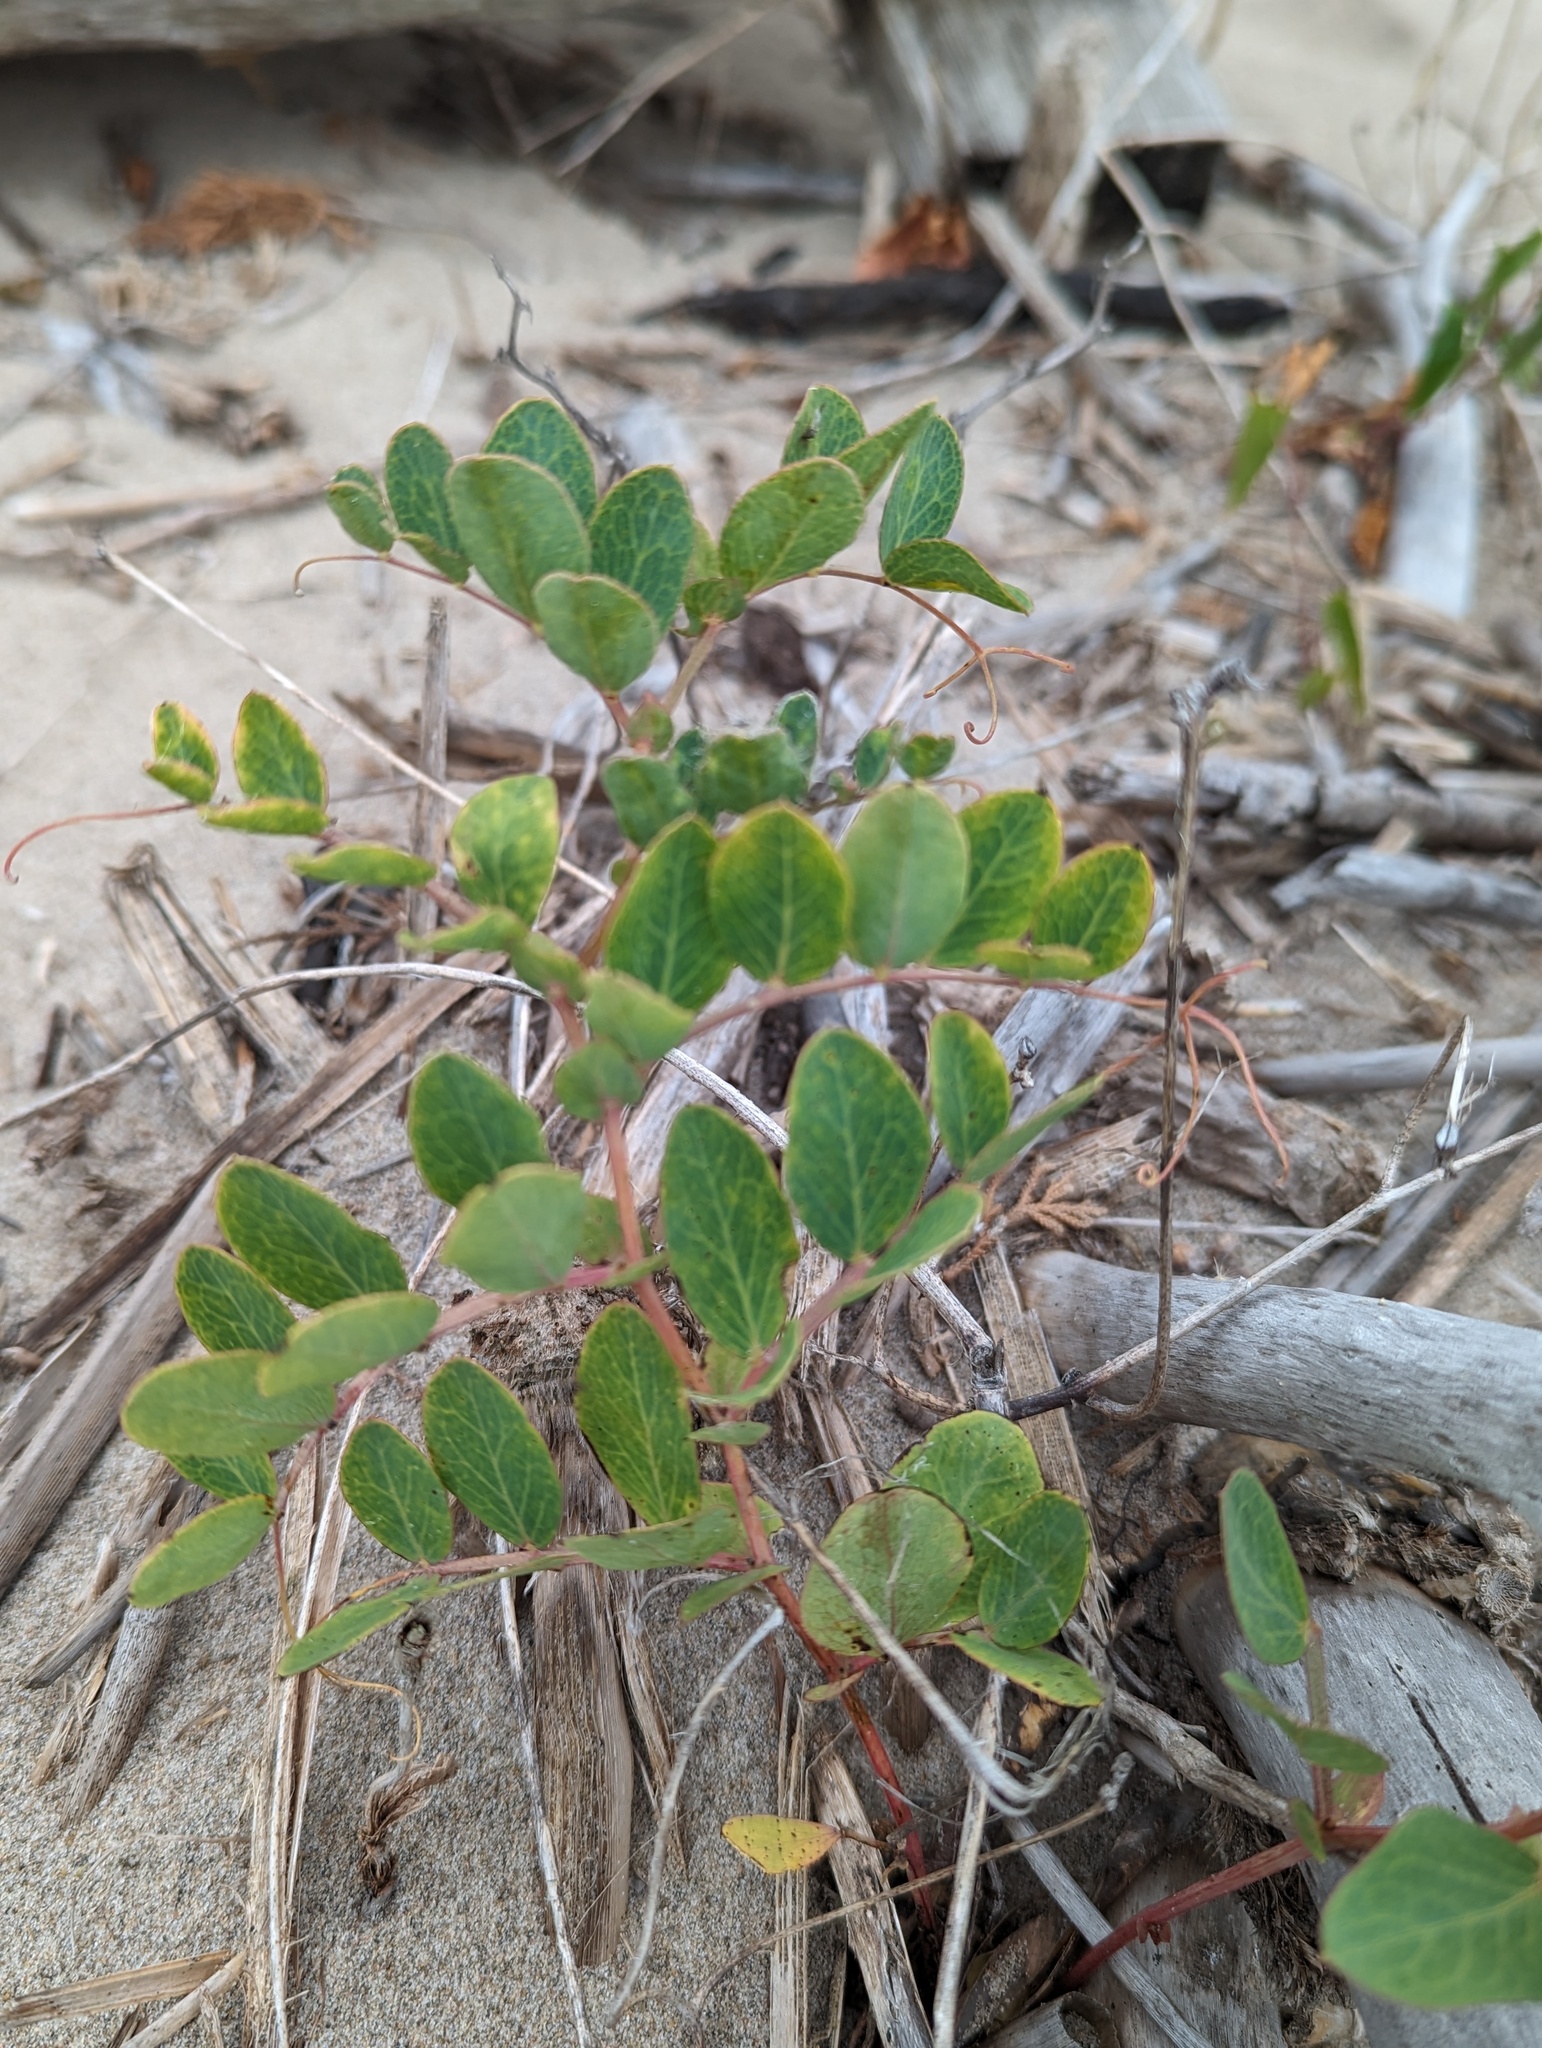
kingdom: Plantae
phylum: Tracheophyta
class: Magnoliopsida
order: Fabales
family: Fabaceae
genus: Lathyrus
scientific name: Lathyrus japonicus
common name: Sea pea
